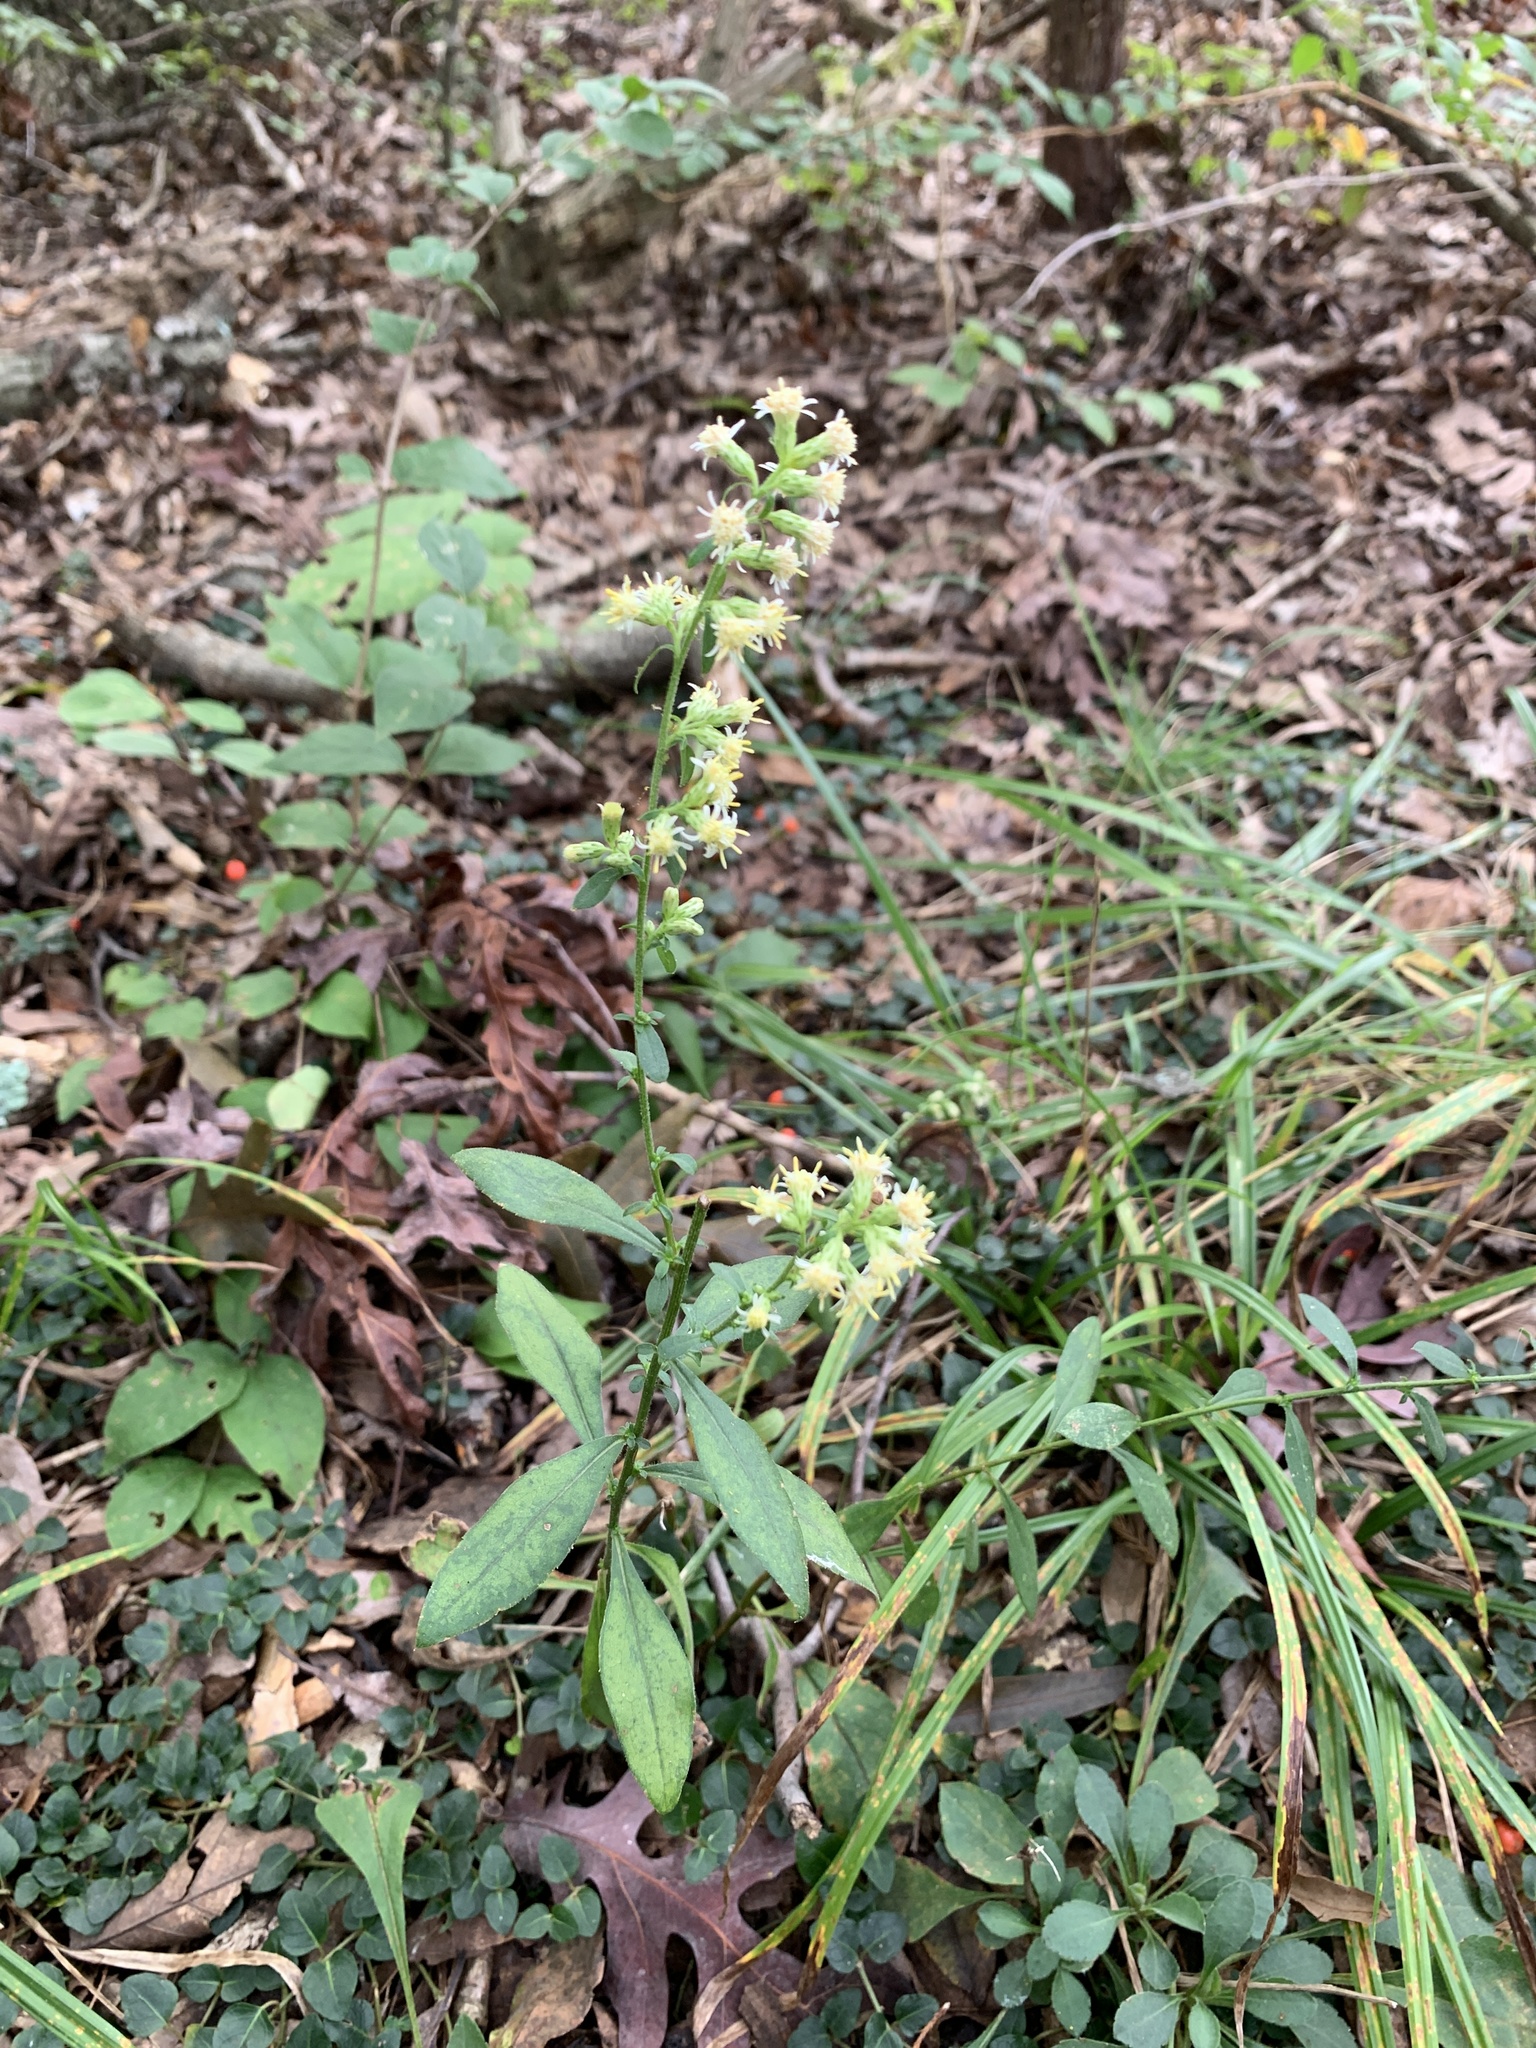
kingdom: Plantae
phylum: Tracheophyta
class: Magnoliopsida
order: Asterales
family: Asteraceae
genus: Solidago
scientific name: Solidago bicolor
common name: Silverrod
